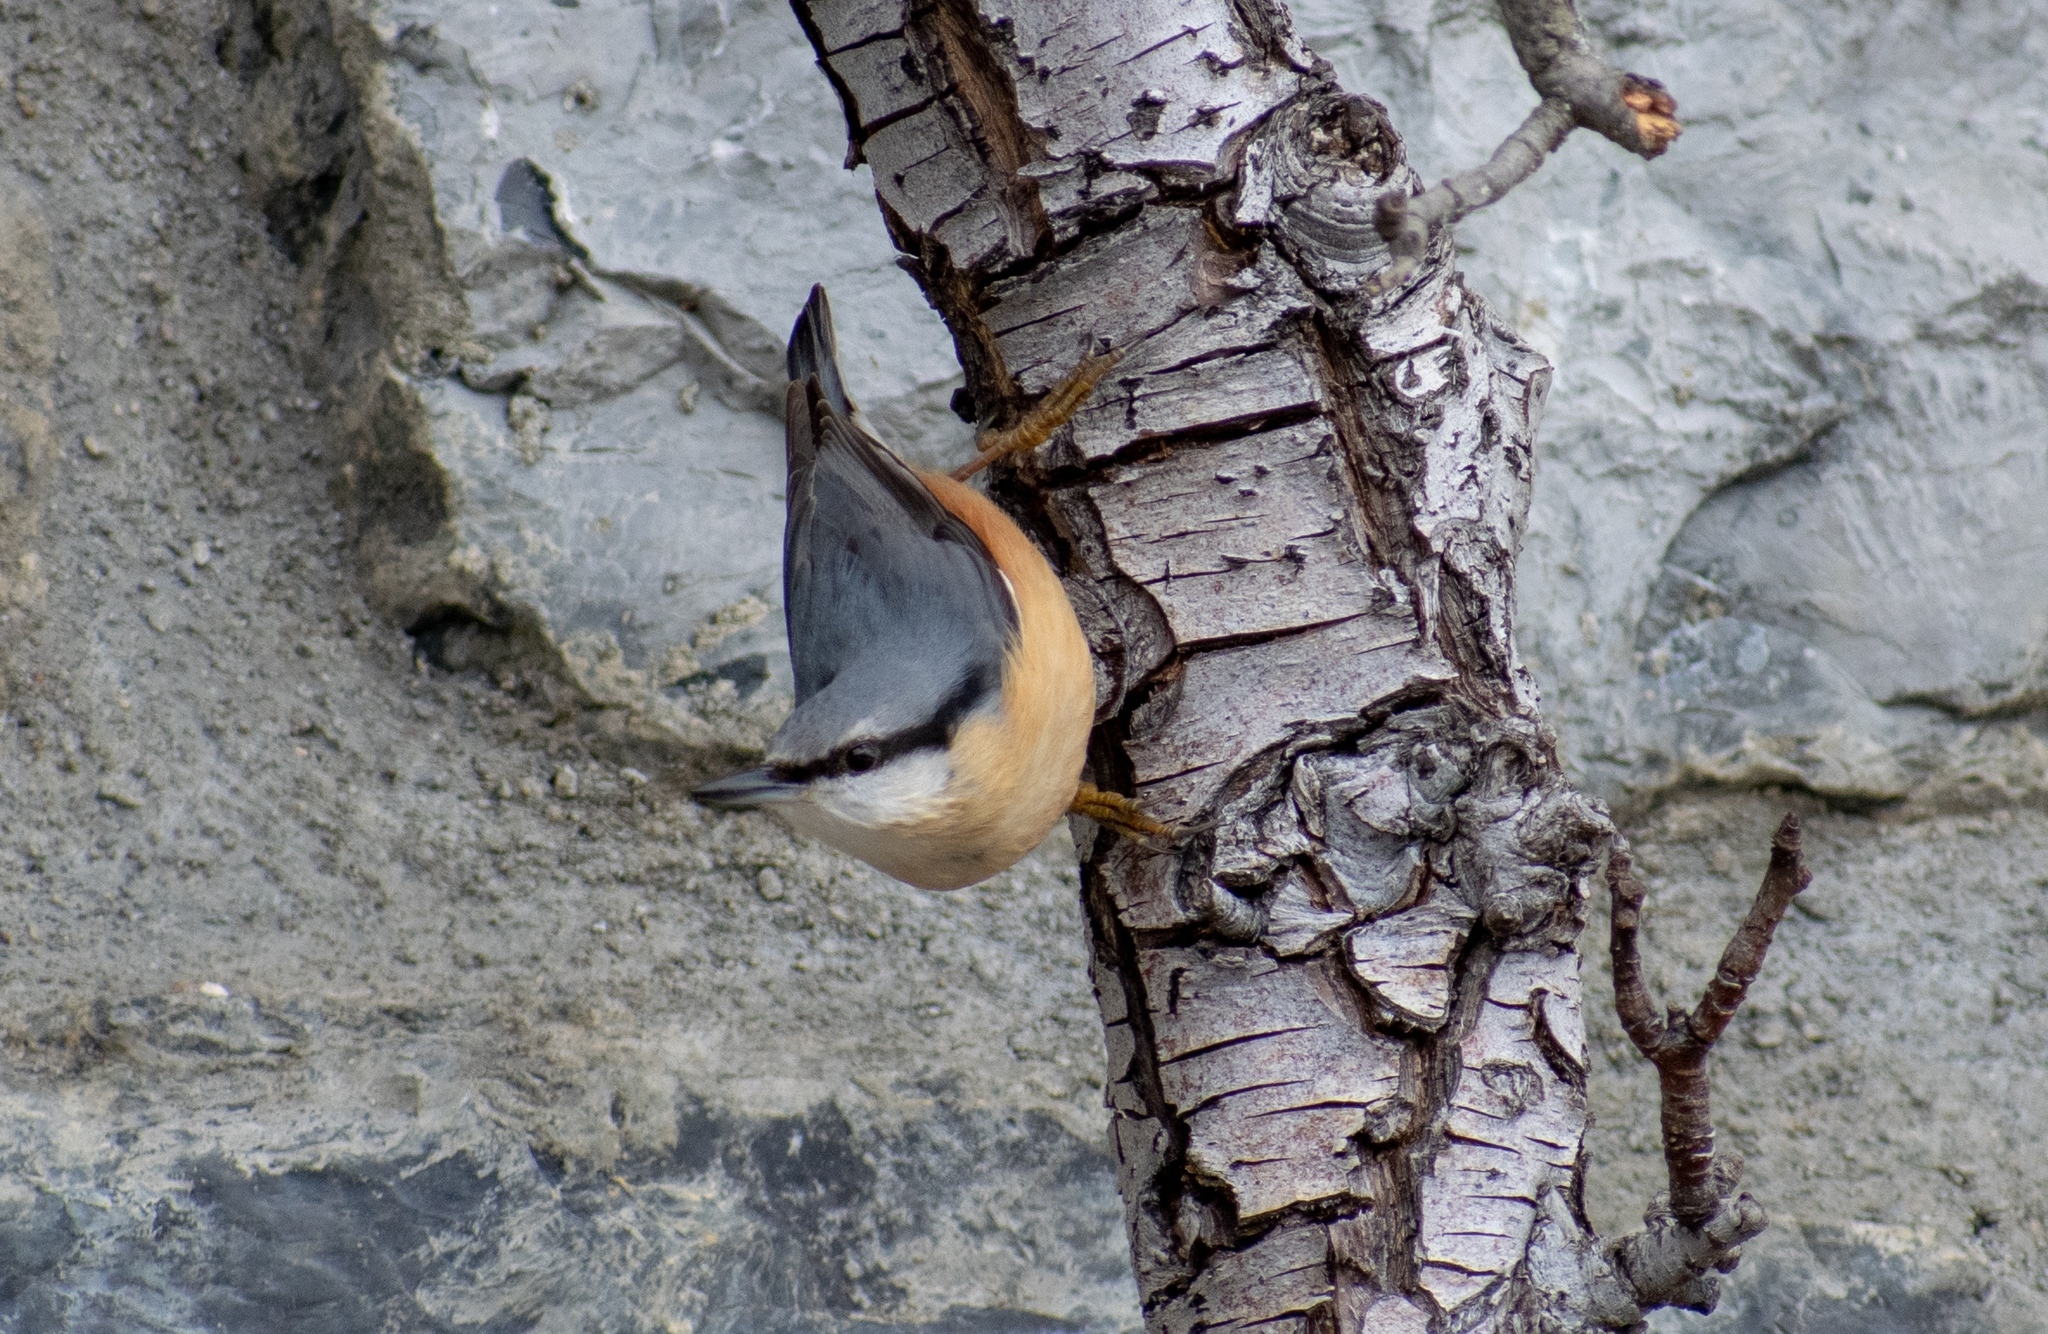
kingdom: Animalia
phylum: Chordata
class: Aves
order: Passeriformes
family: Sittidae
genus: Sitta
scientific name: Sitta europaea
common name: Eurasian nuthatch
